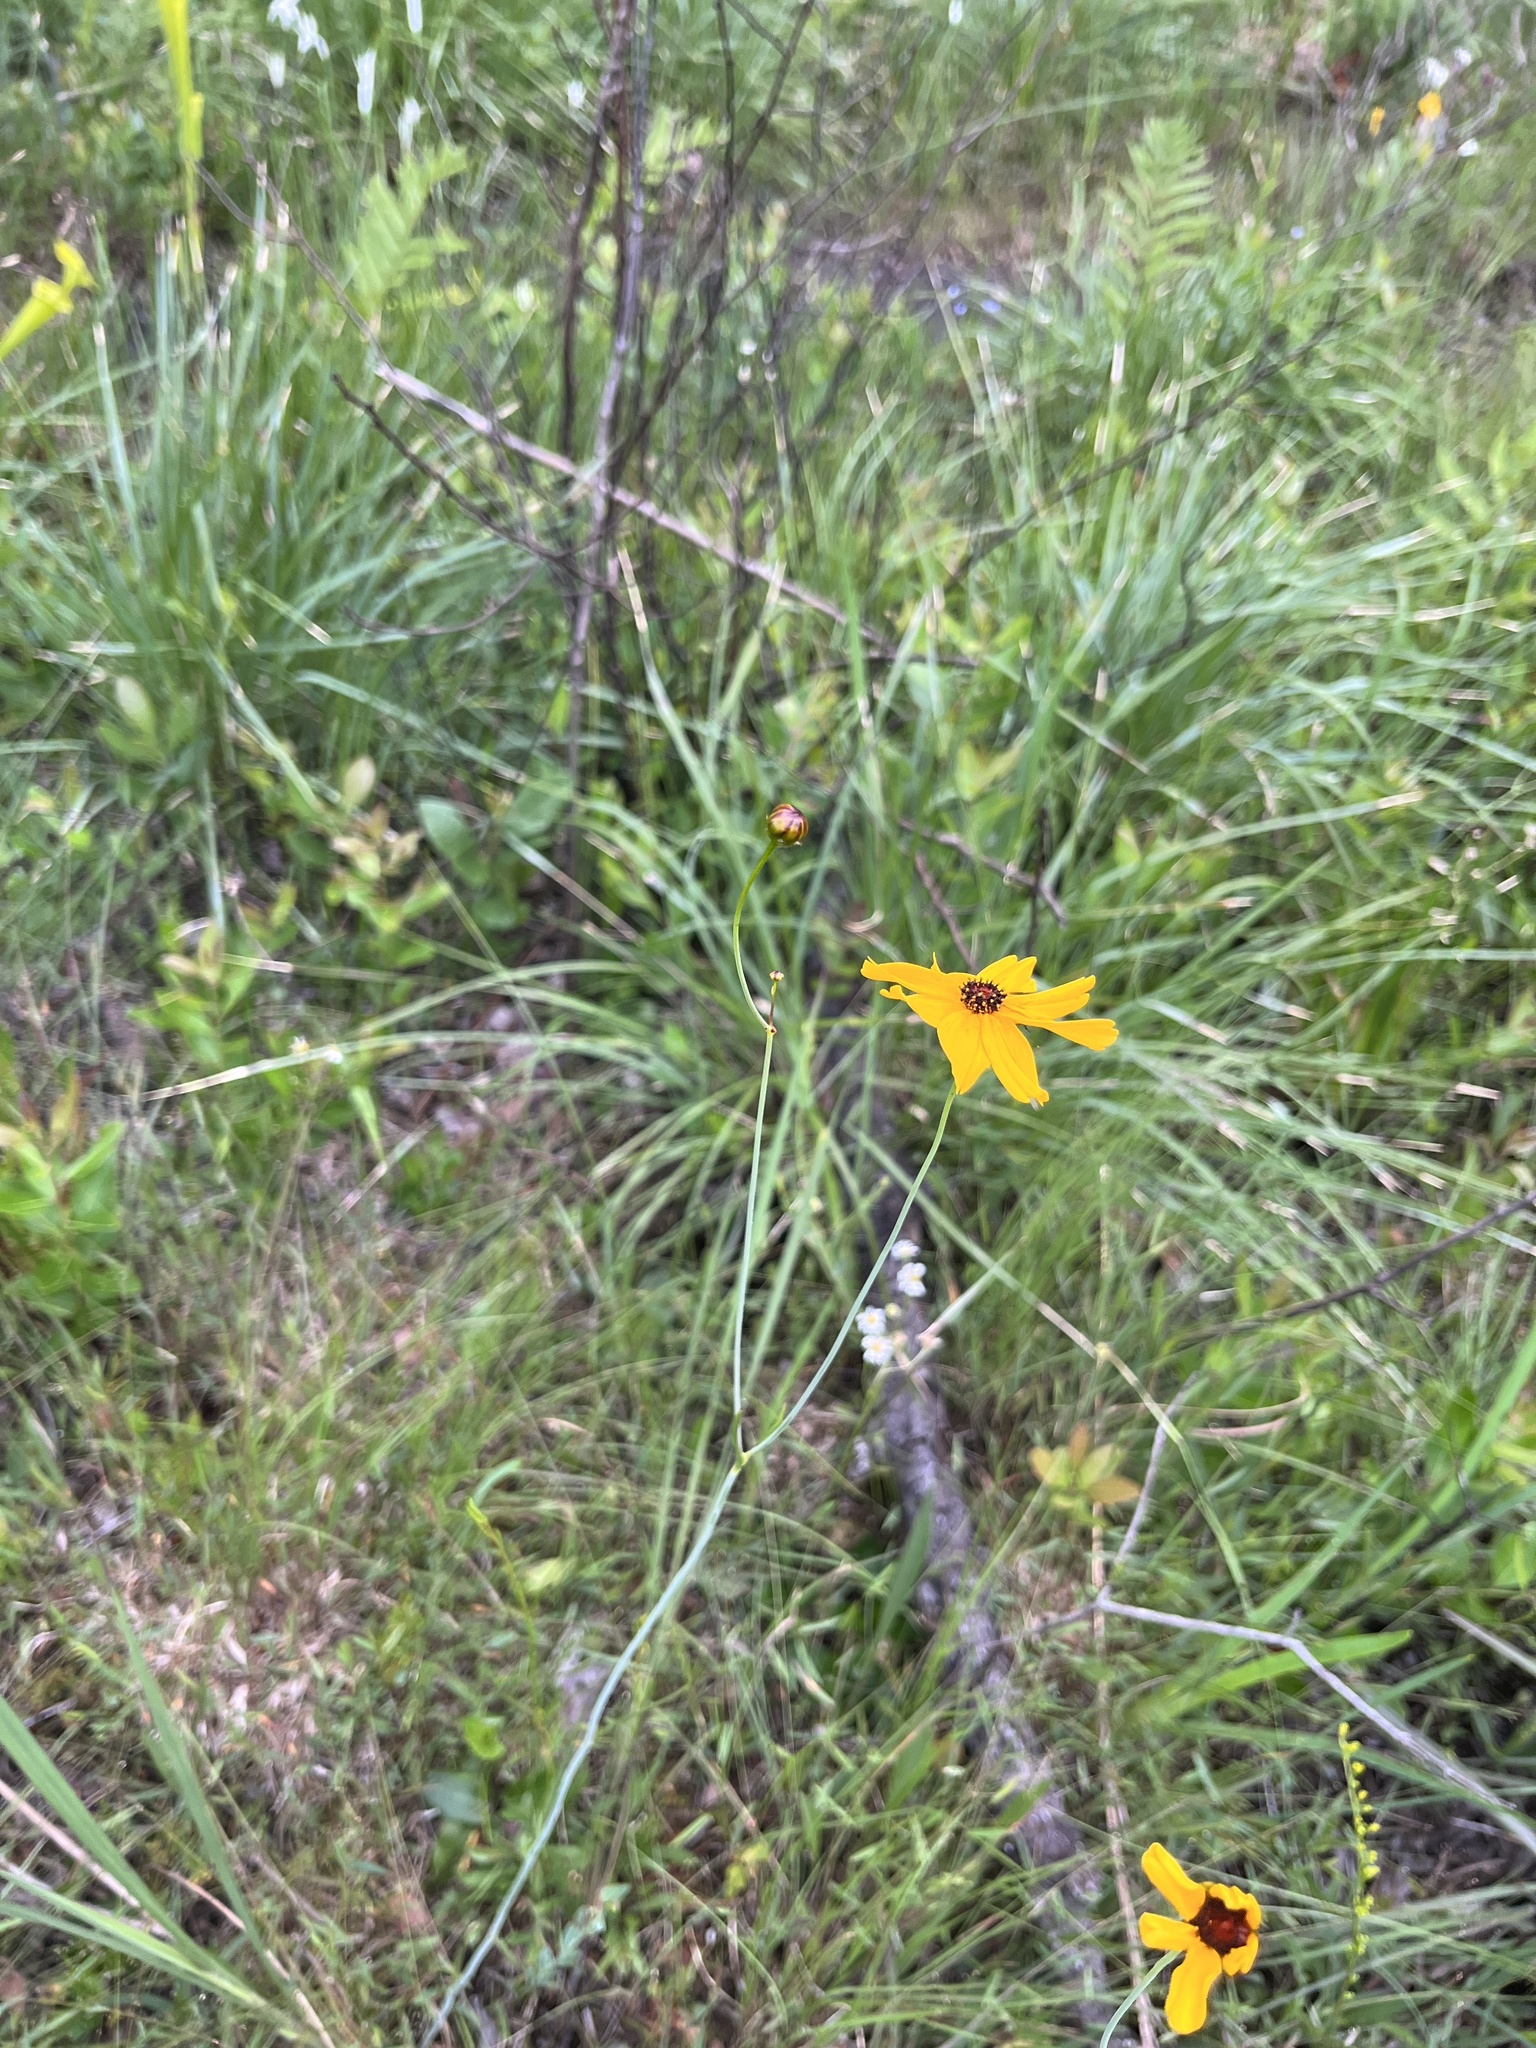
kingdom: Plantae
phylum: Tracheophyta
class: Magnoliopsida
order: Asterales
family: Asteraceae
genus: Coreopsis
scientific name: Coreopsis gladiata
